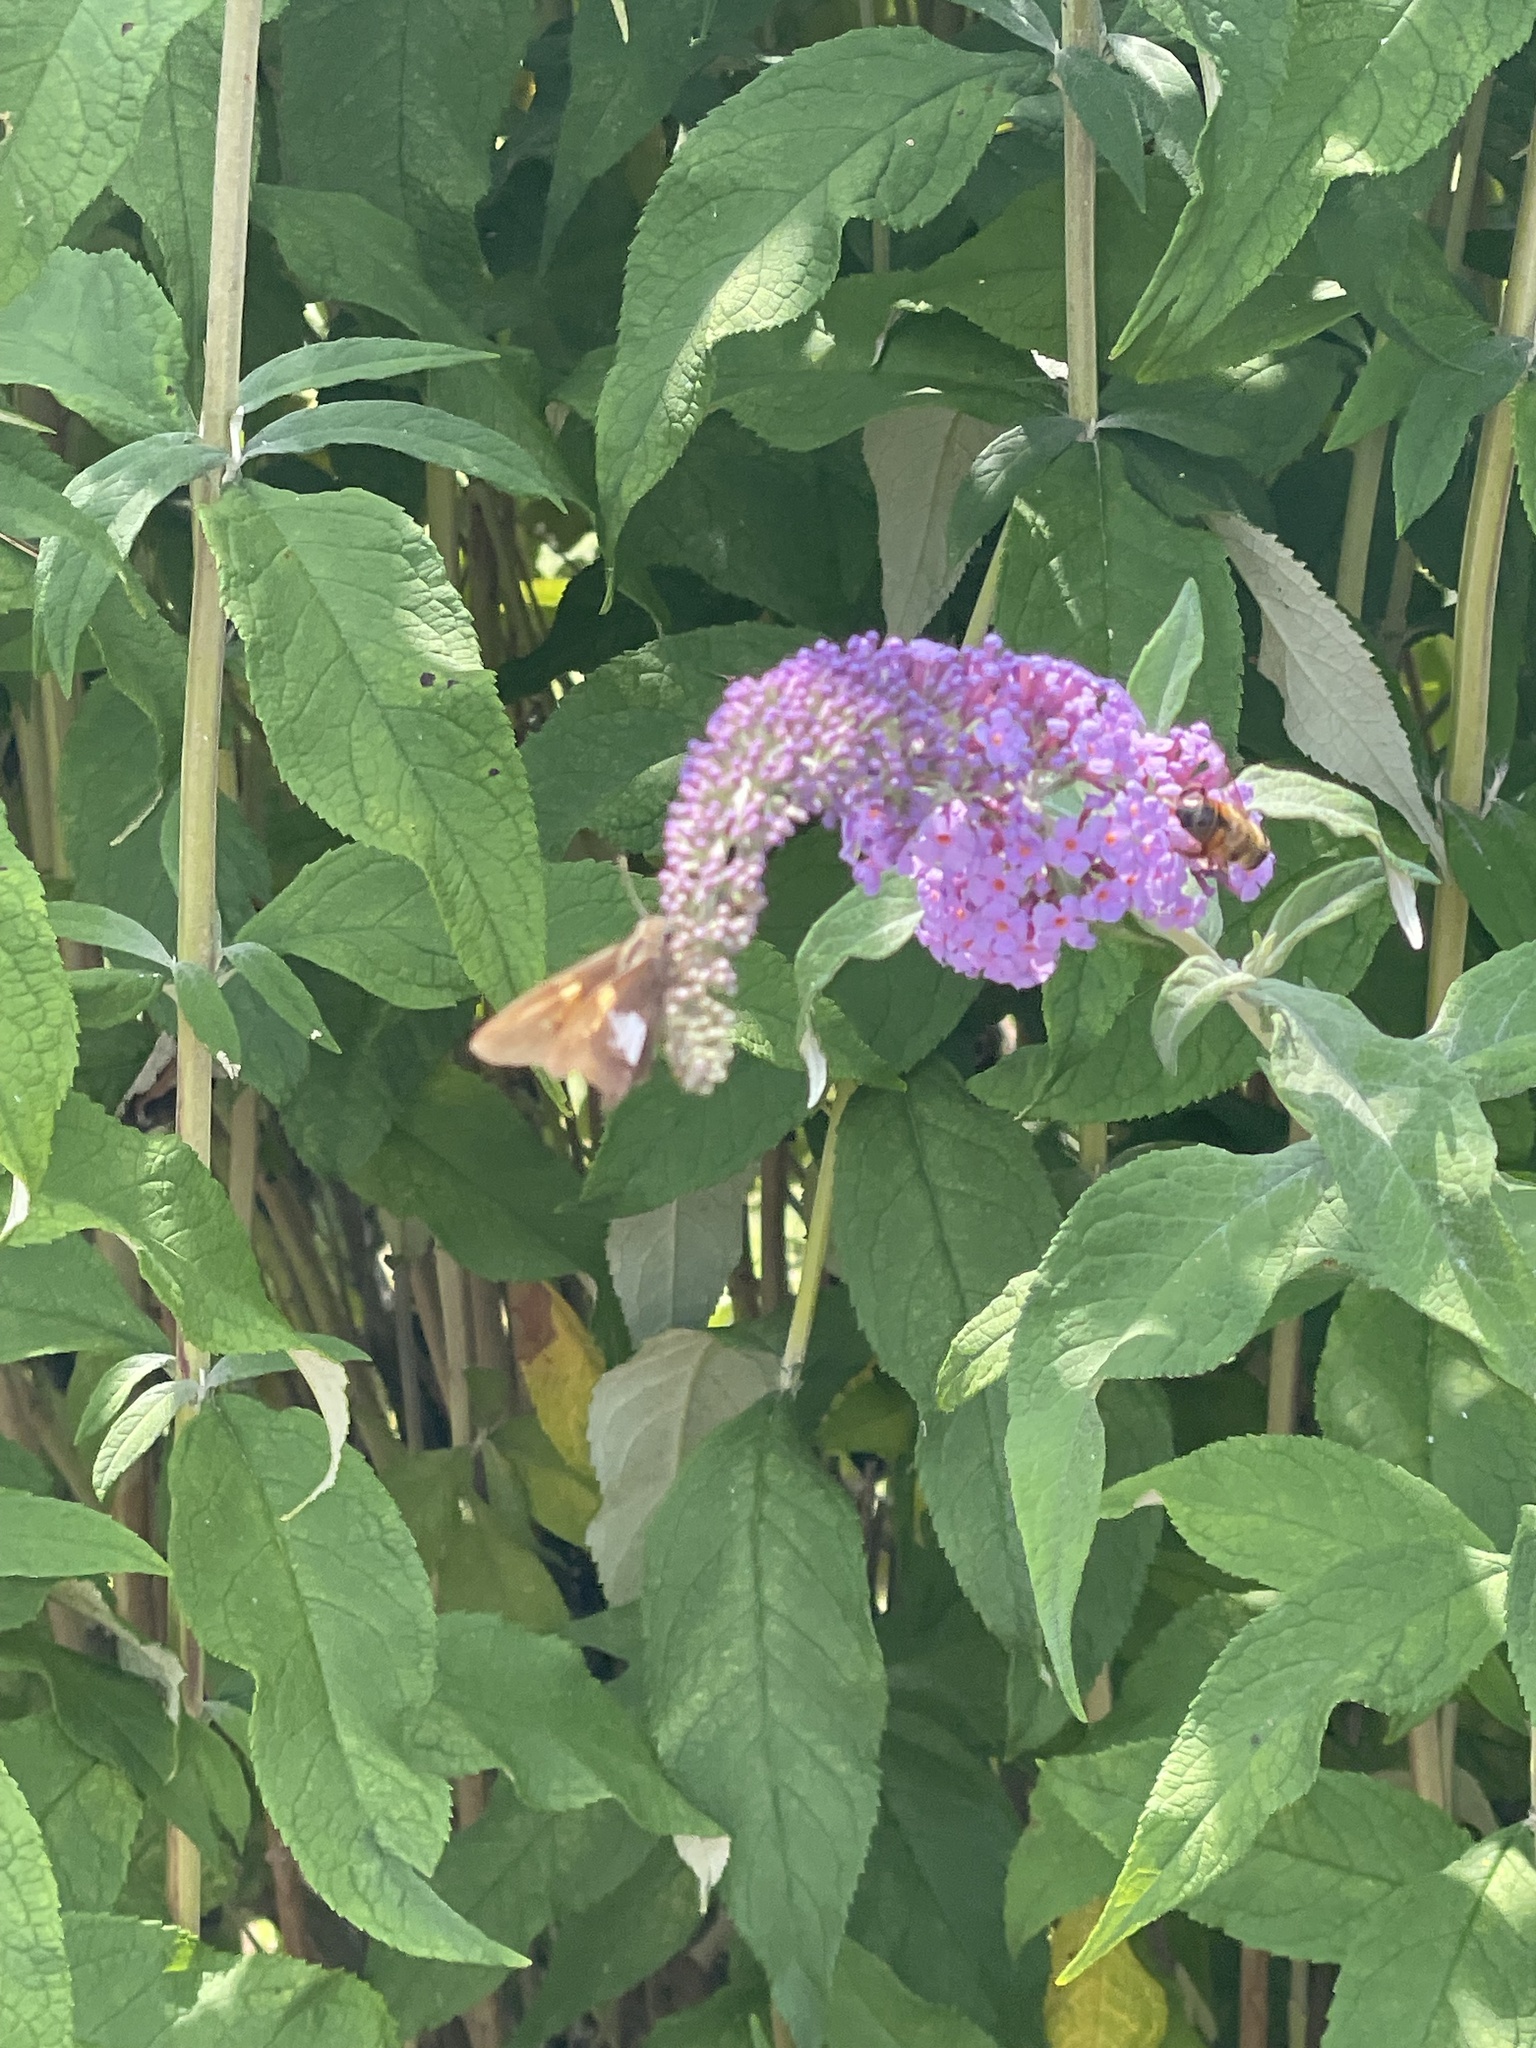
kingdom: Animalia
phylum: Arthropoda
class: Insecta
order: Lepidoptera
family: Hesperiidae
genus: Epargyreus
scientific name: Epargyreus clarus
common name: Silver-spotted skipper
